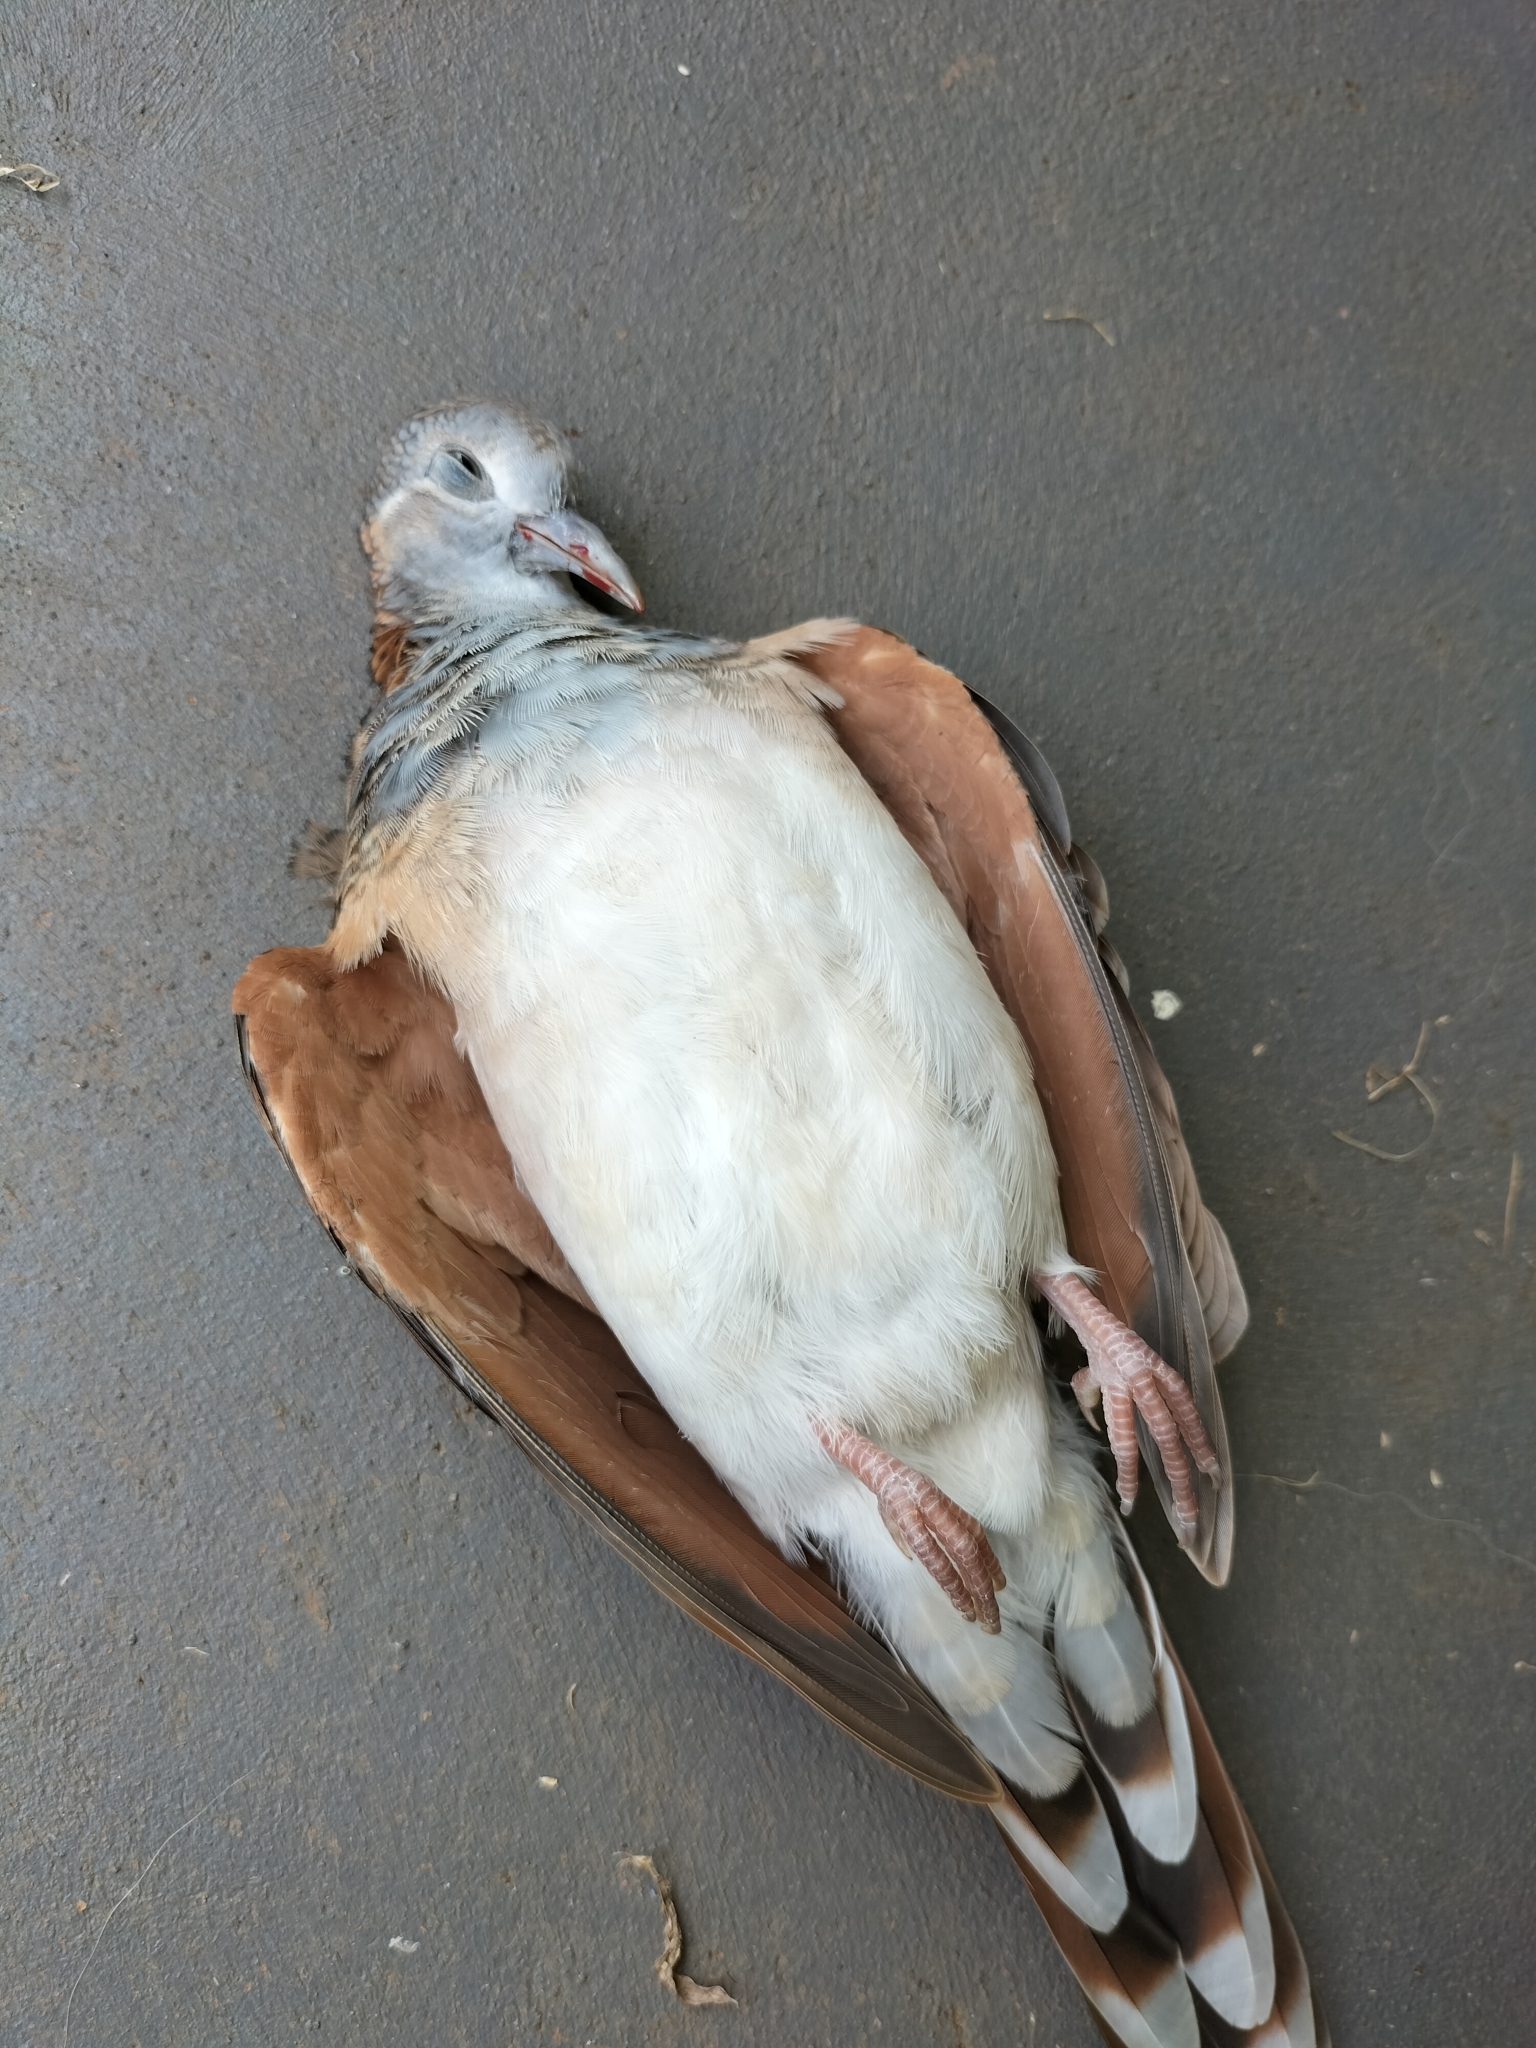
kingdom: Animalia
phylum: Chordata
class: Aves
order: Columbiformes
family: Columbidae
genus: Geopelia
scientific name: Geopelia humeralis
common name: Bar-shouldered dove
